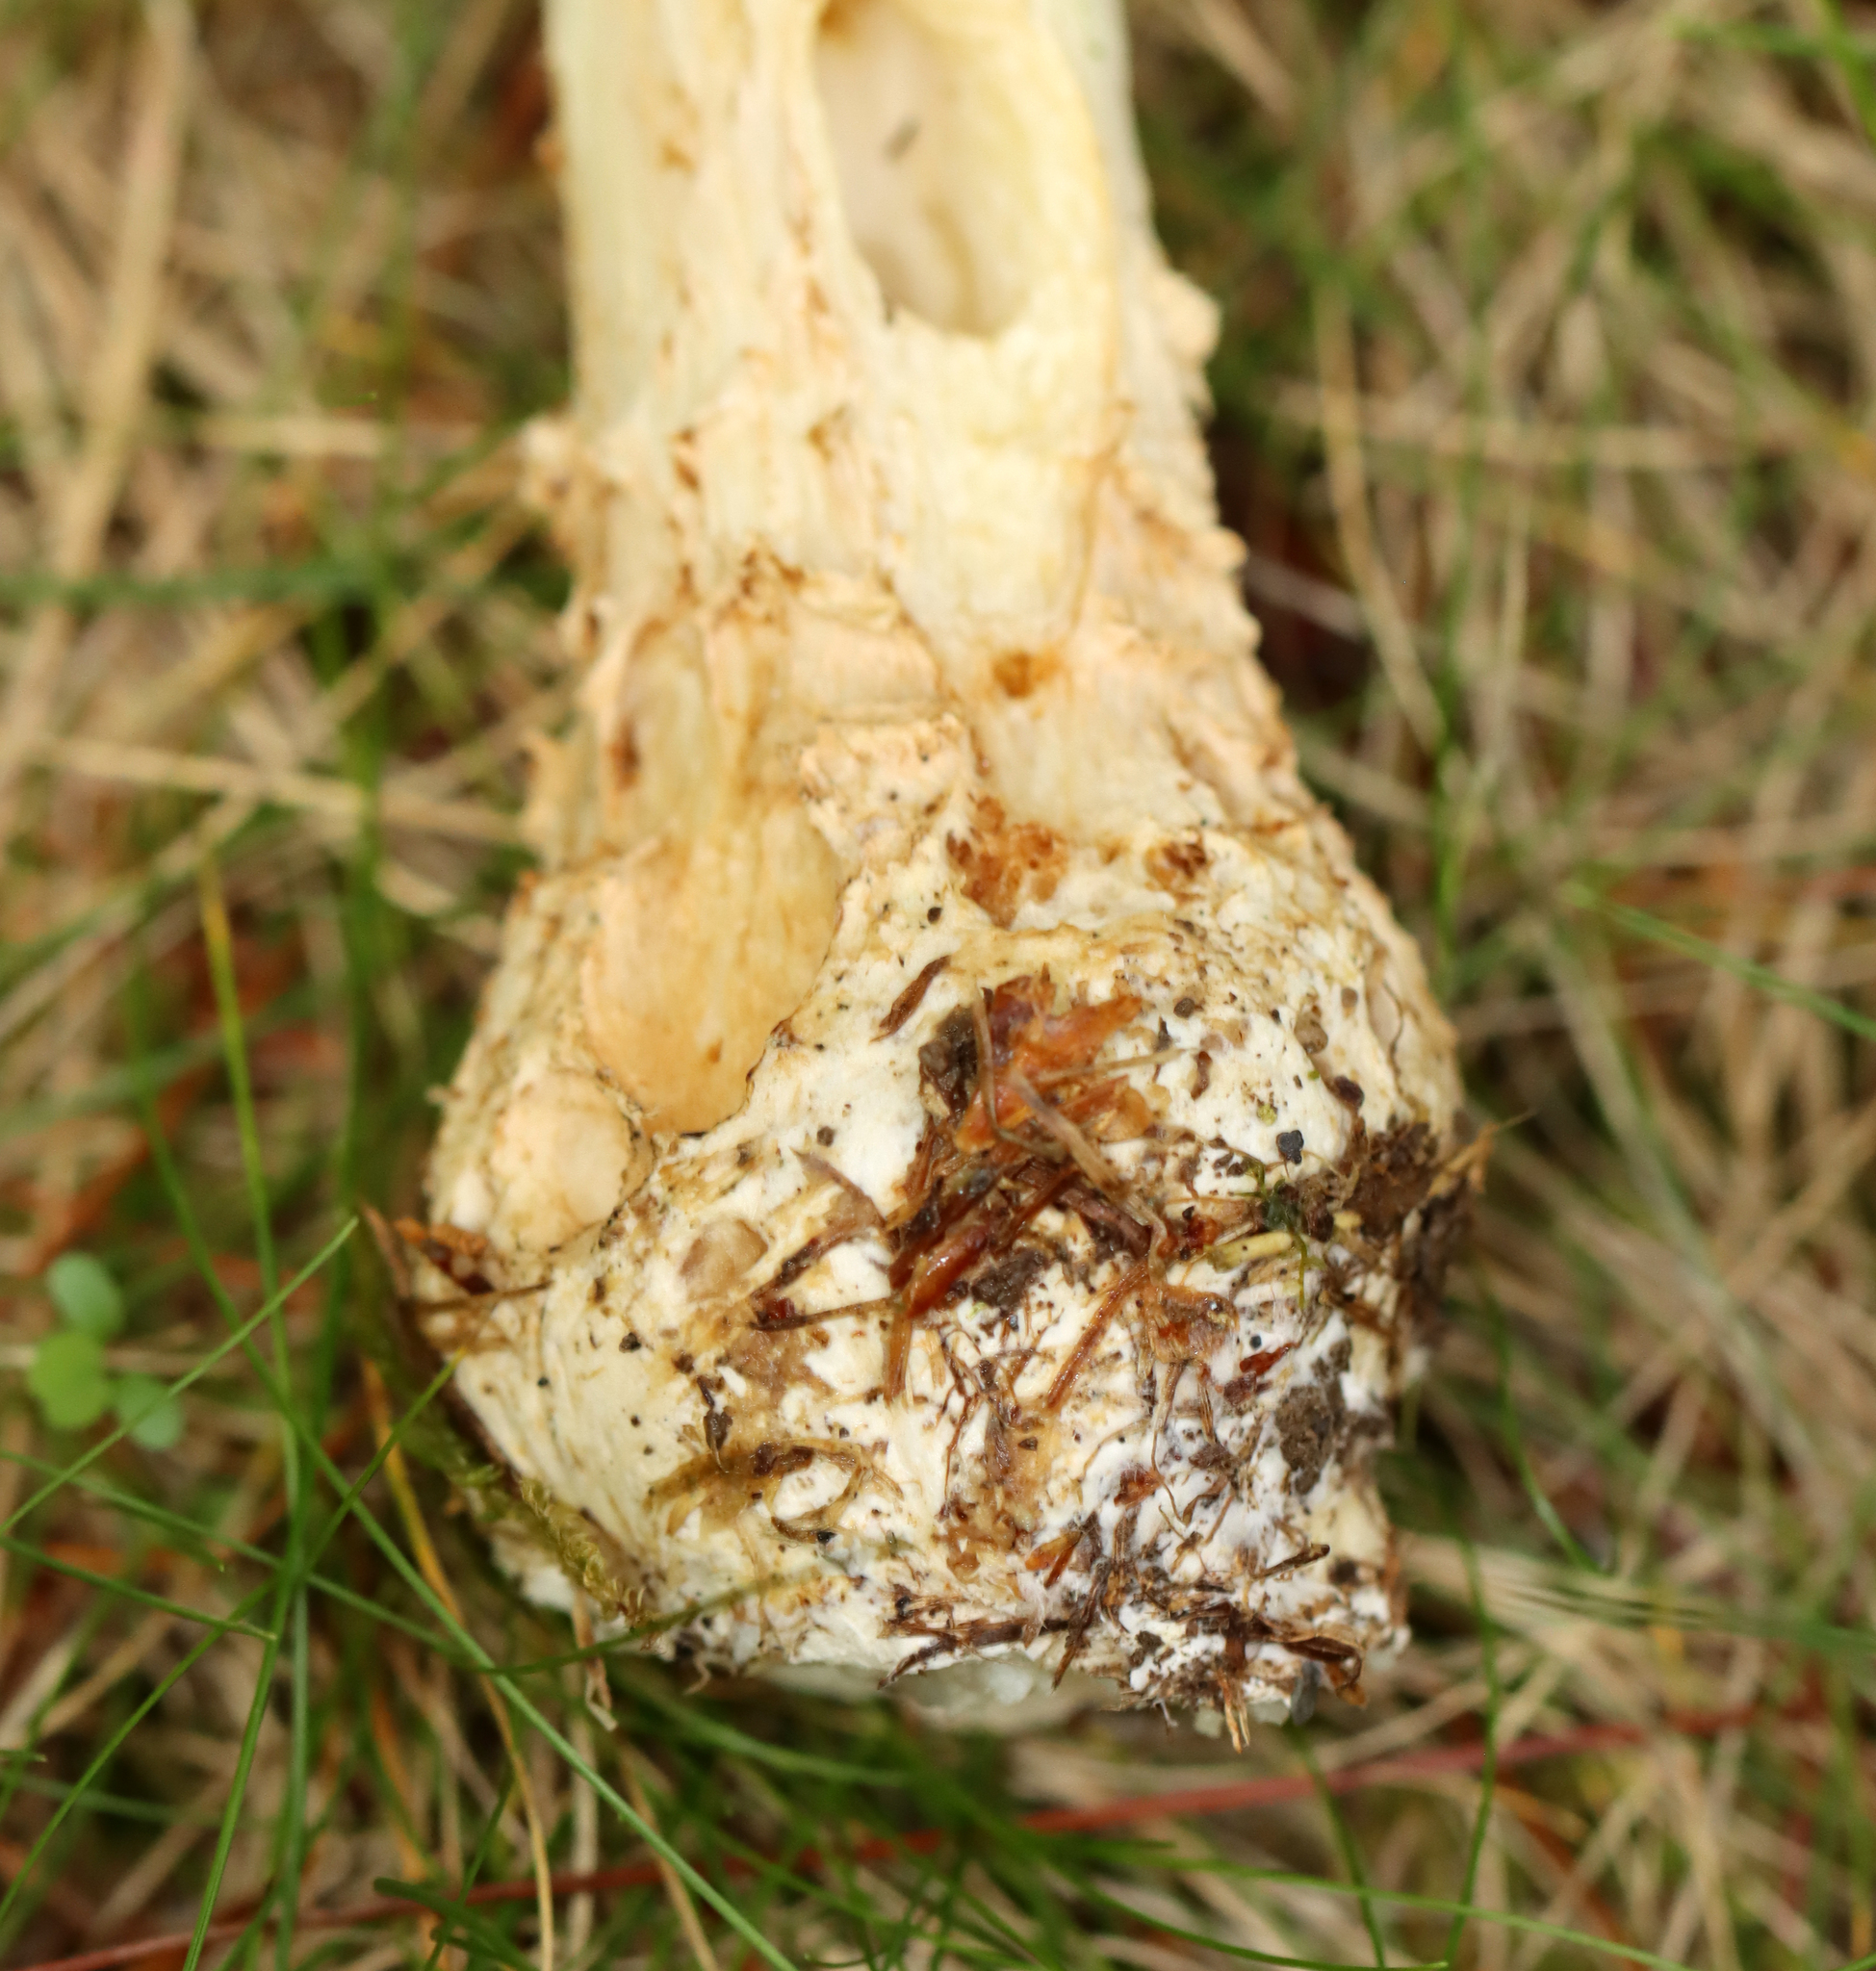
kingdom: Fungi
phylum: Basidiomycota
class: Agaricomycetes
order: Agaricales
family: Amanitaceae
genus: Amanita
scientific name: Amanita muscaria
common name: Fly agaric
